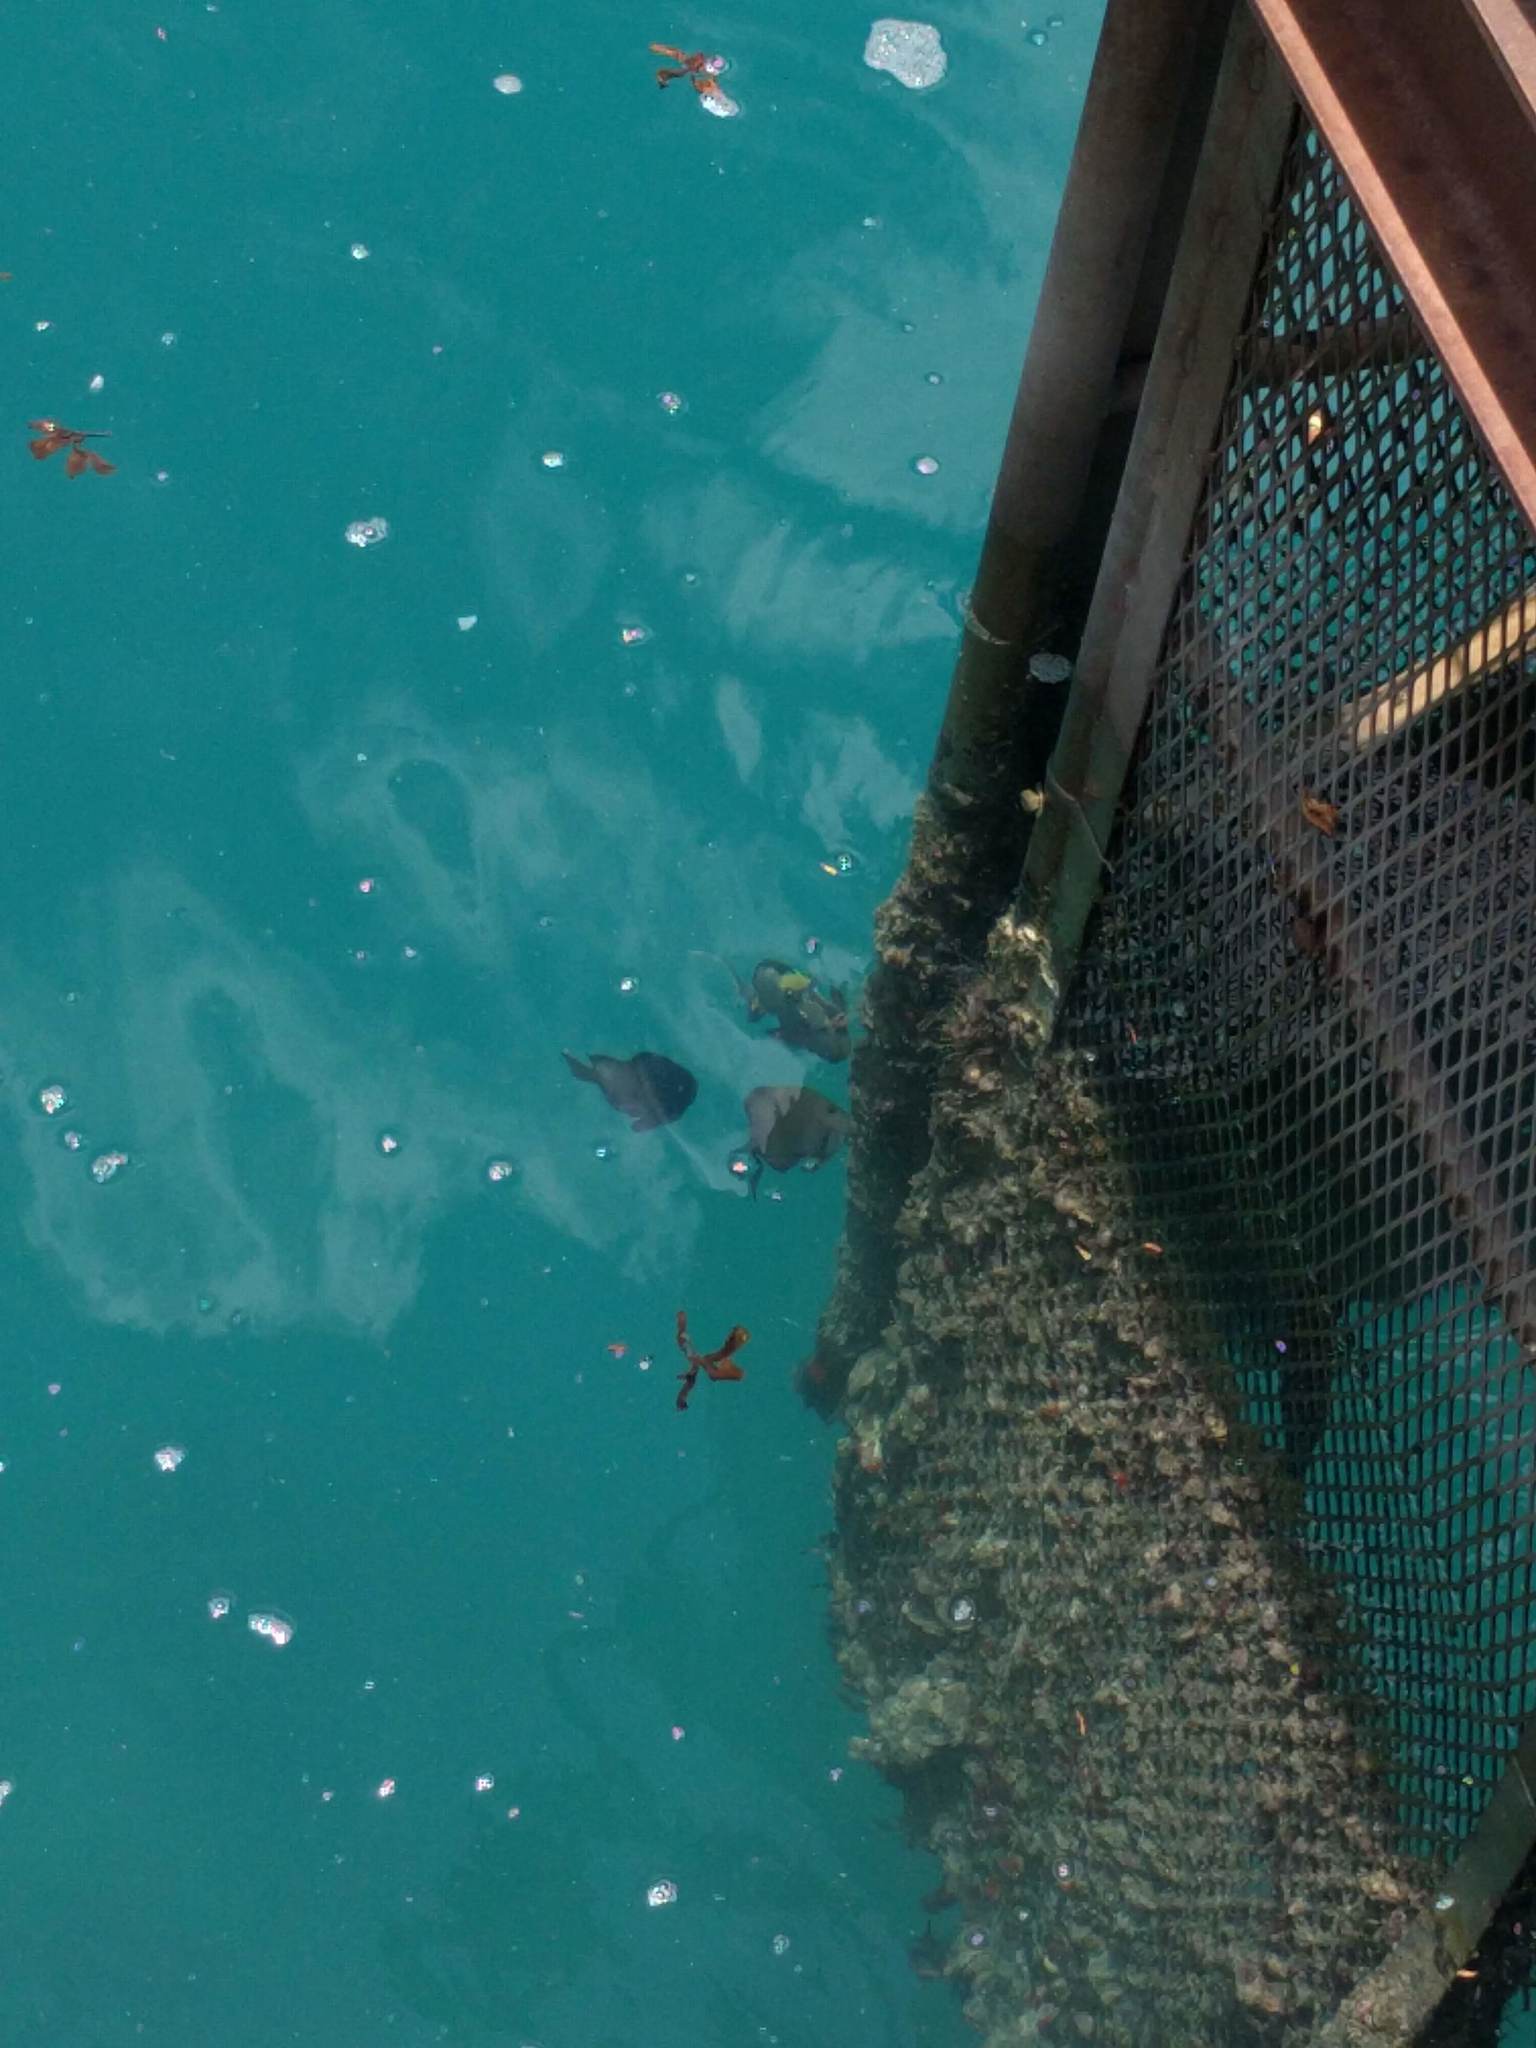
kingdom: Animalia
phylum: Chordata
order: Perciformes
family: Acanthuridae
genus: Naso
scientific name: Naso lituratus
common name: Orangespine unicornfish
